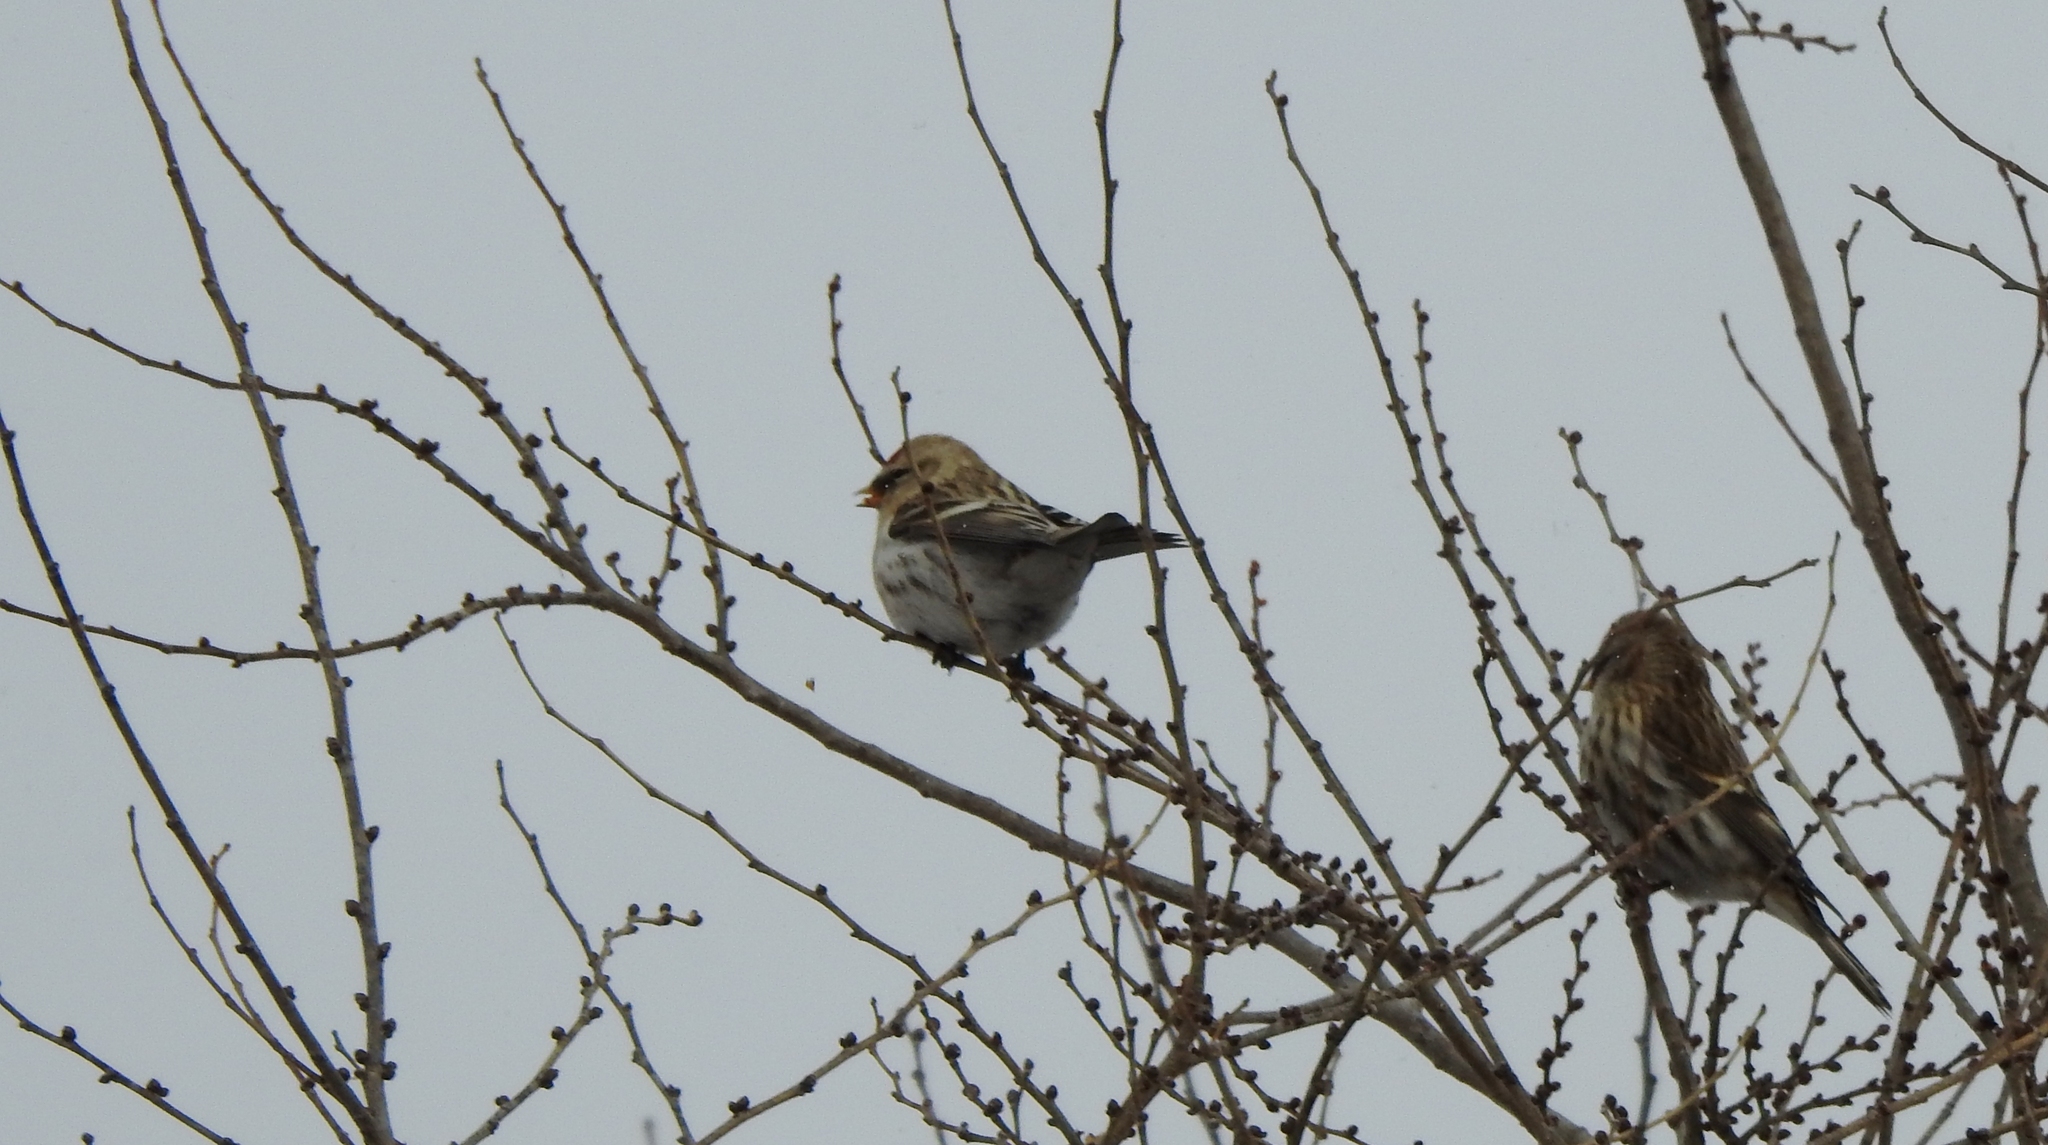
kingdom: Animalia
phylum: Chordata
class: Aves
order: Passeriformes
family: Fringillidae
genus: Acanthis
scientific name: Acanthis flammea
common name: Common redpoll
